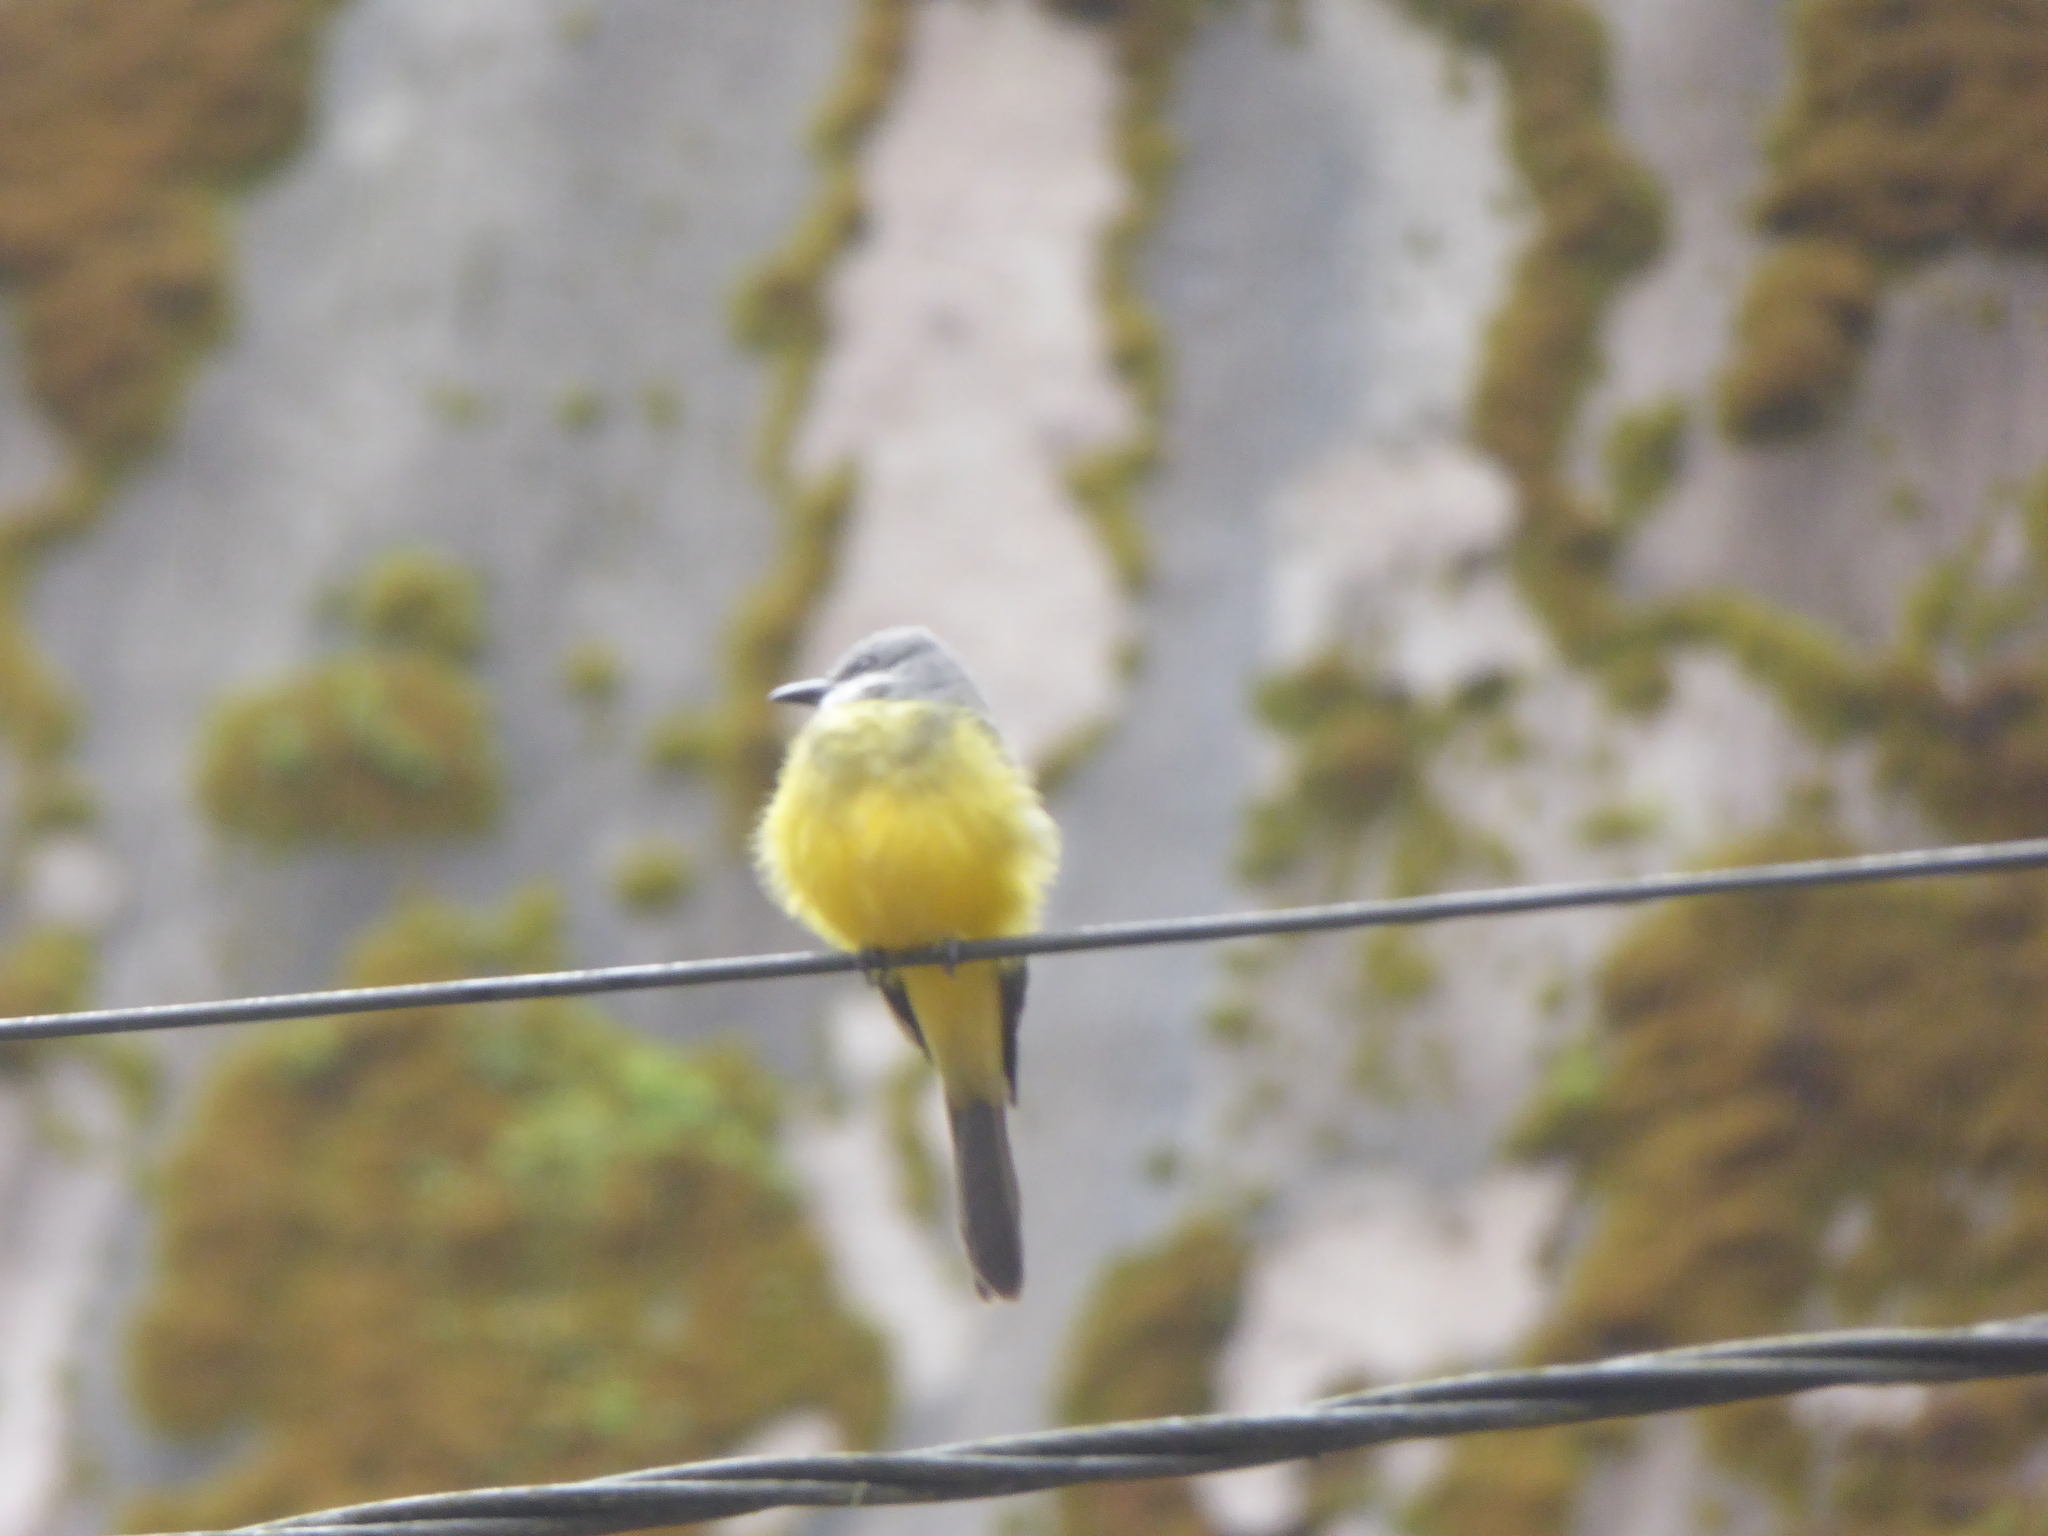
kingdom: Animalia
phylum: Chordata
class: Aves
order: Passeriformes
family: Tyrannidae
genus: Tyrannus
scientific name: Tyrannus melancholicus
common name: Tropical kingbird
